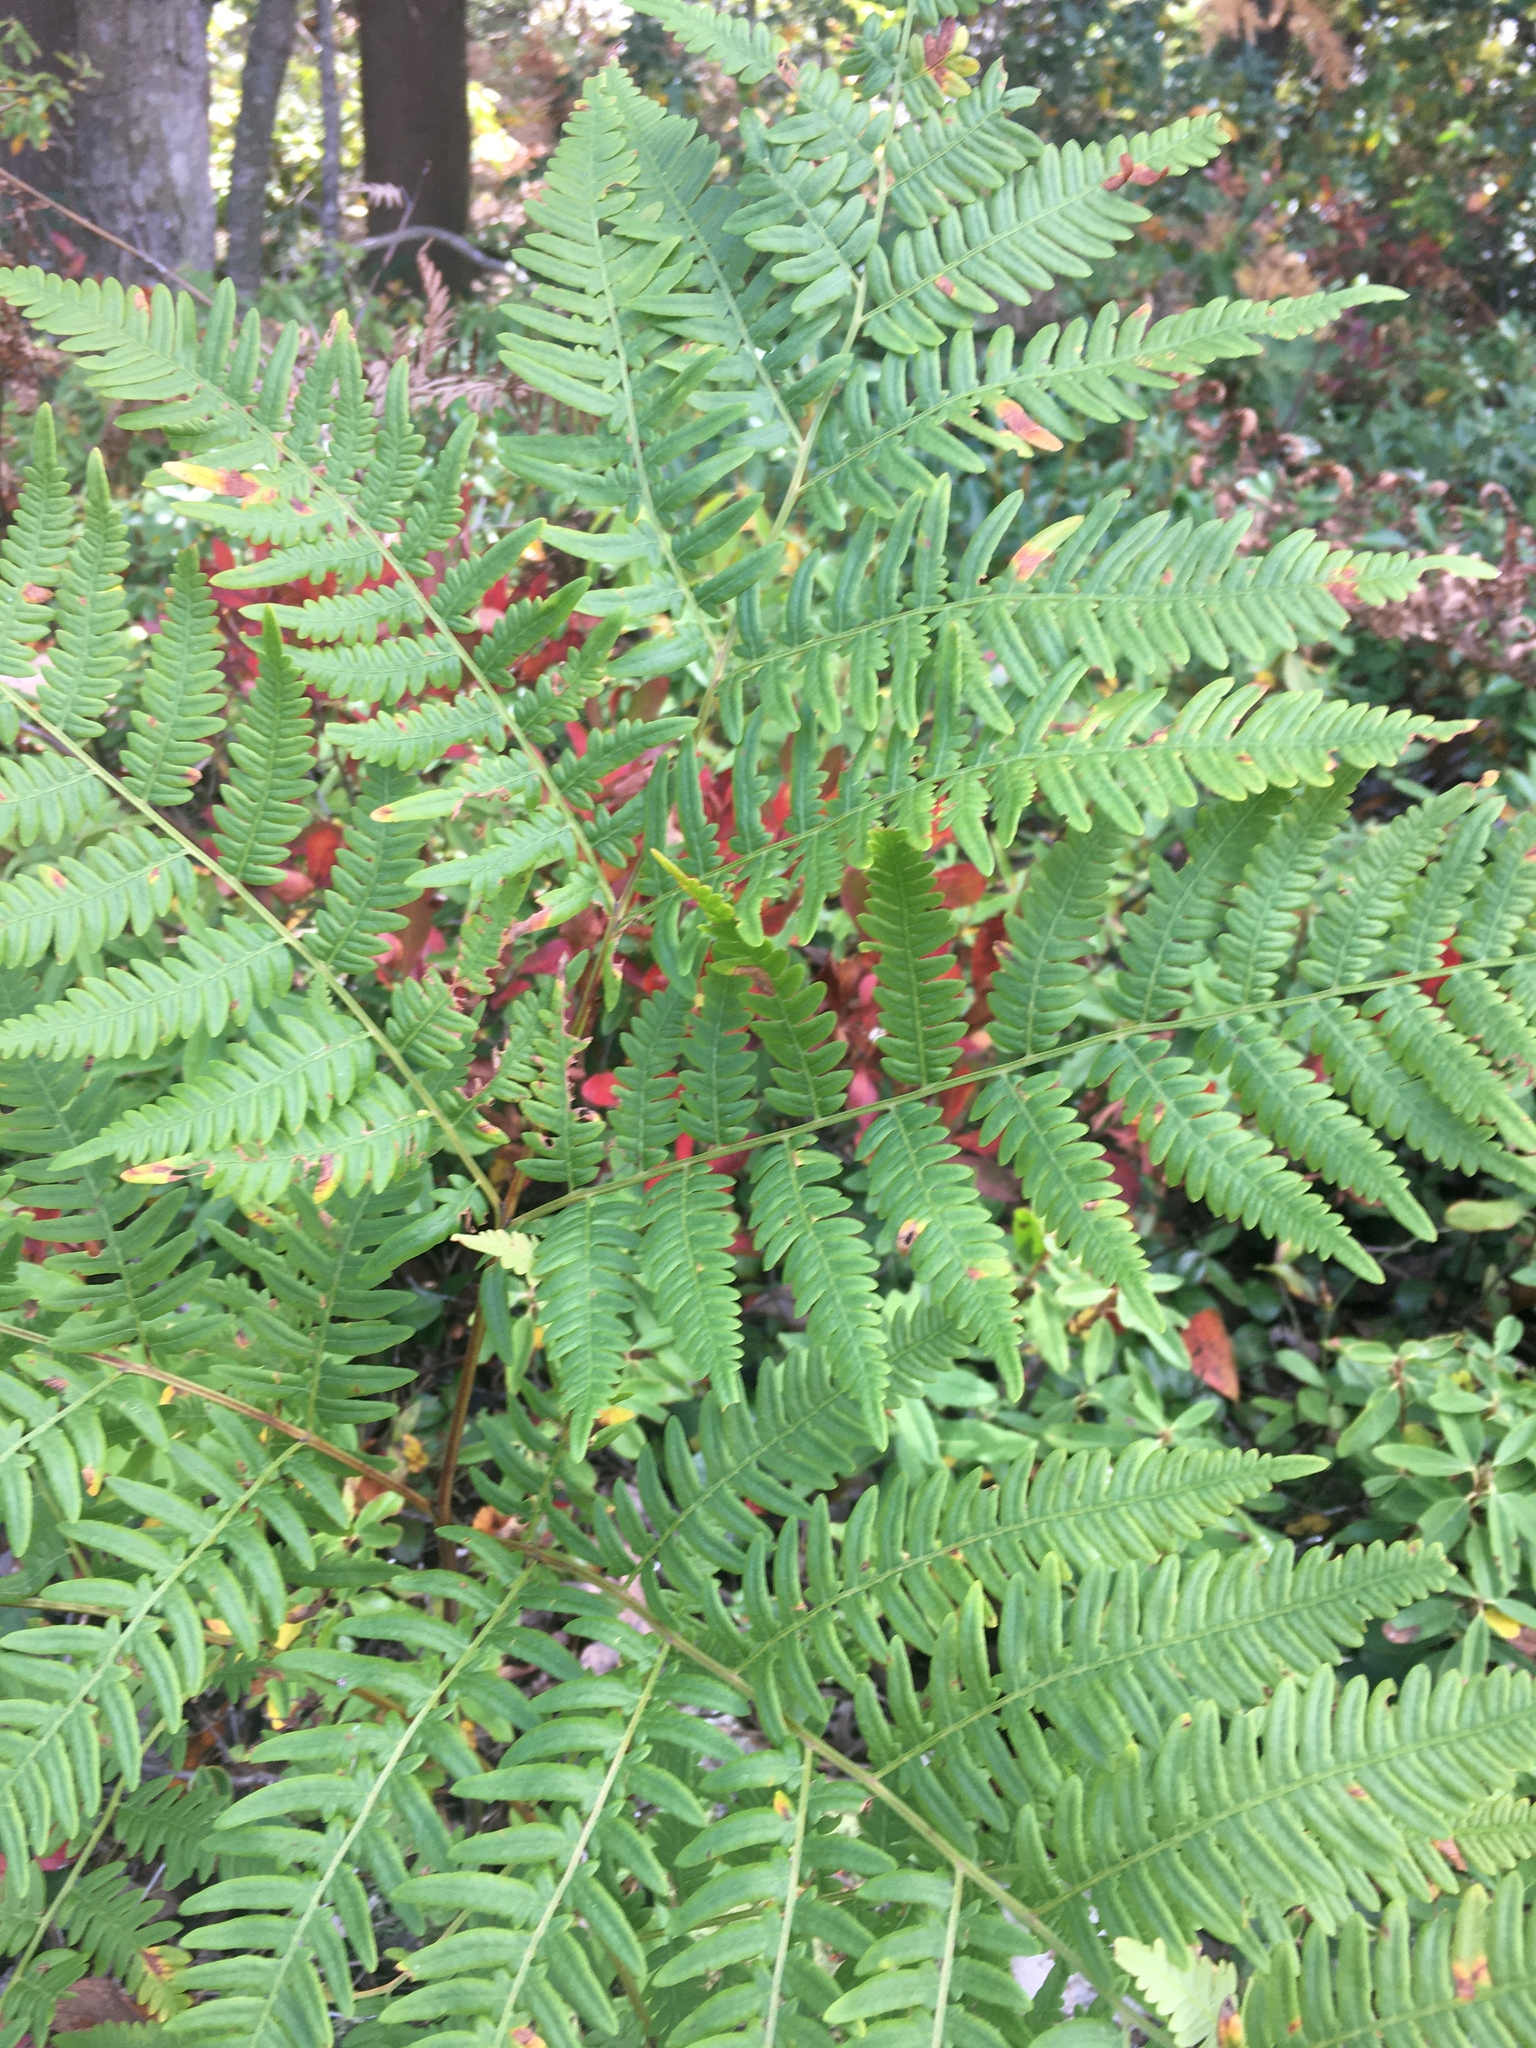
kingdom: Plantae
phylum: Tracheophyta
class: Polypodiopsida
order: Polypodiales
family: Dennstaedtiaceae
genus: Pteridium
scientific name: Pteridium aquilinum
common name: Bracken
